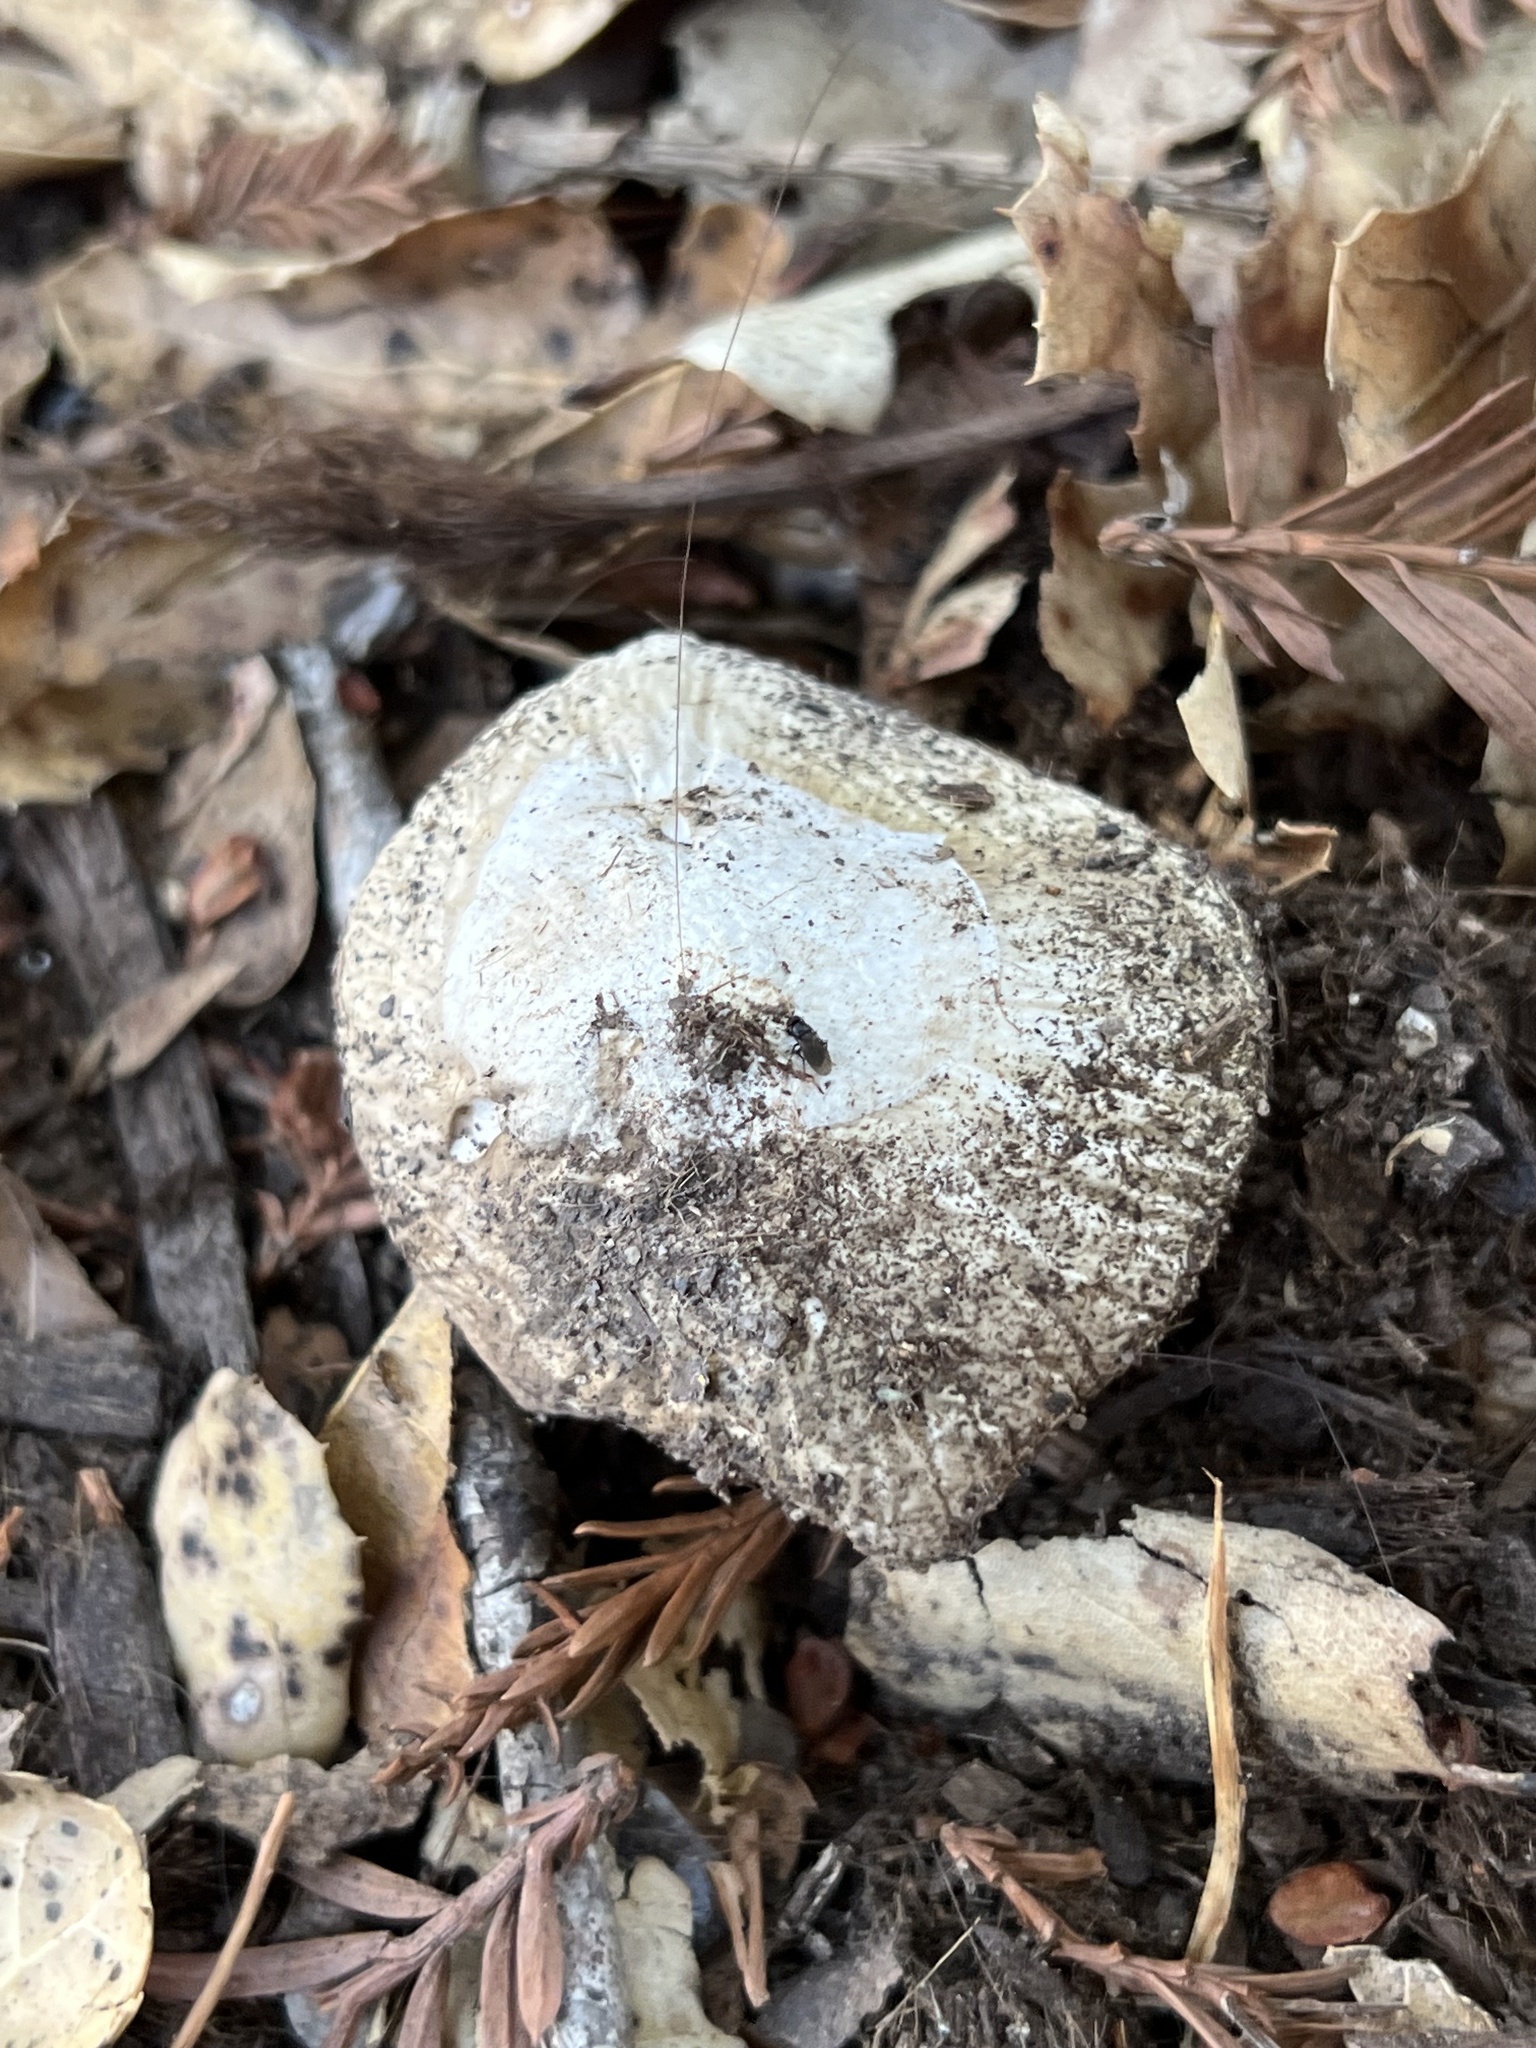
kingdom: Fungi
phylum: Basidiomycota
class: Agaricomycetes
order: Agaricales
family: Amanitaceae
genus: Amanita
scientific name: Amanita calyptroderma
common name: Coccora
